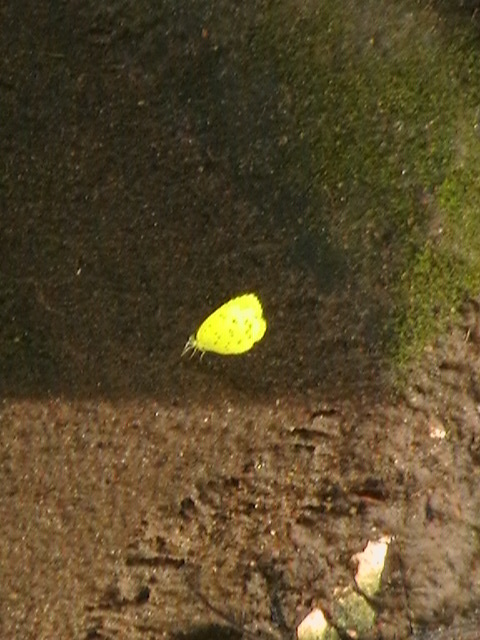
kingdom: Animalia
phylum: Arthropoda
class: Insecta
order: Lepidoptera
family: Pieridae
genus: Eurema
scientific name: Eurema hecabe
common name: Pale grass yellow
